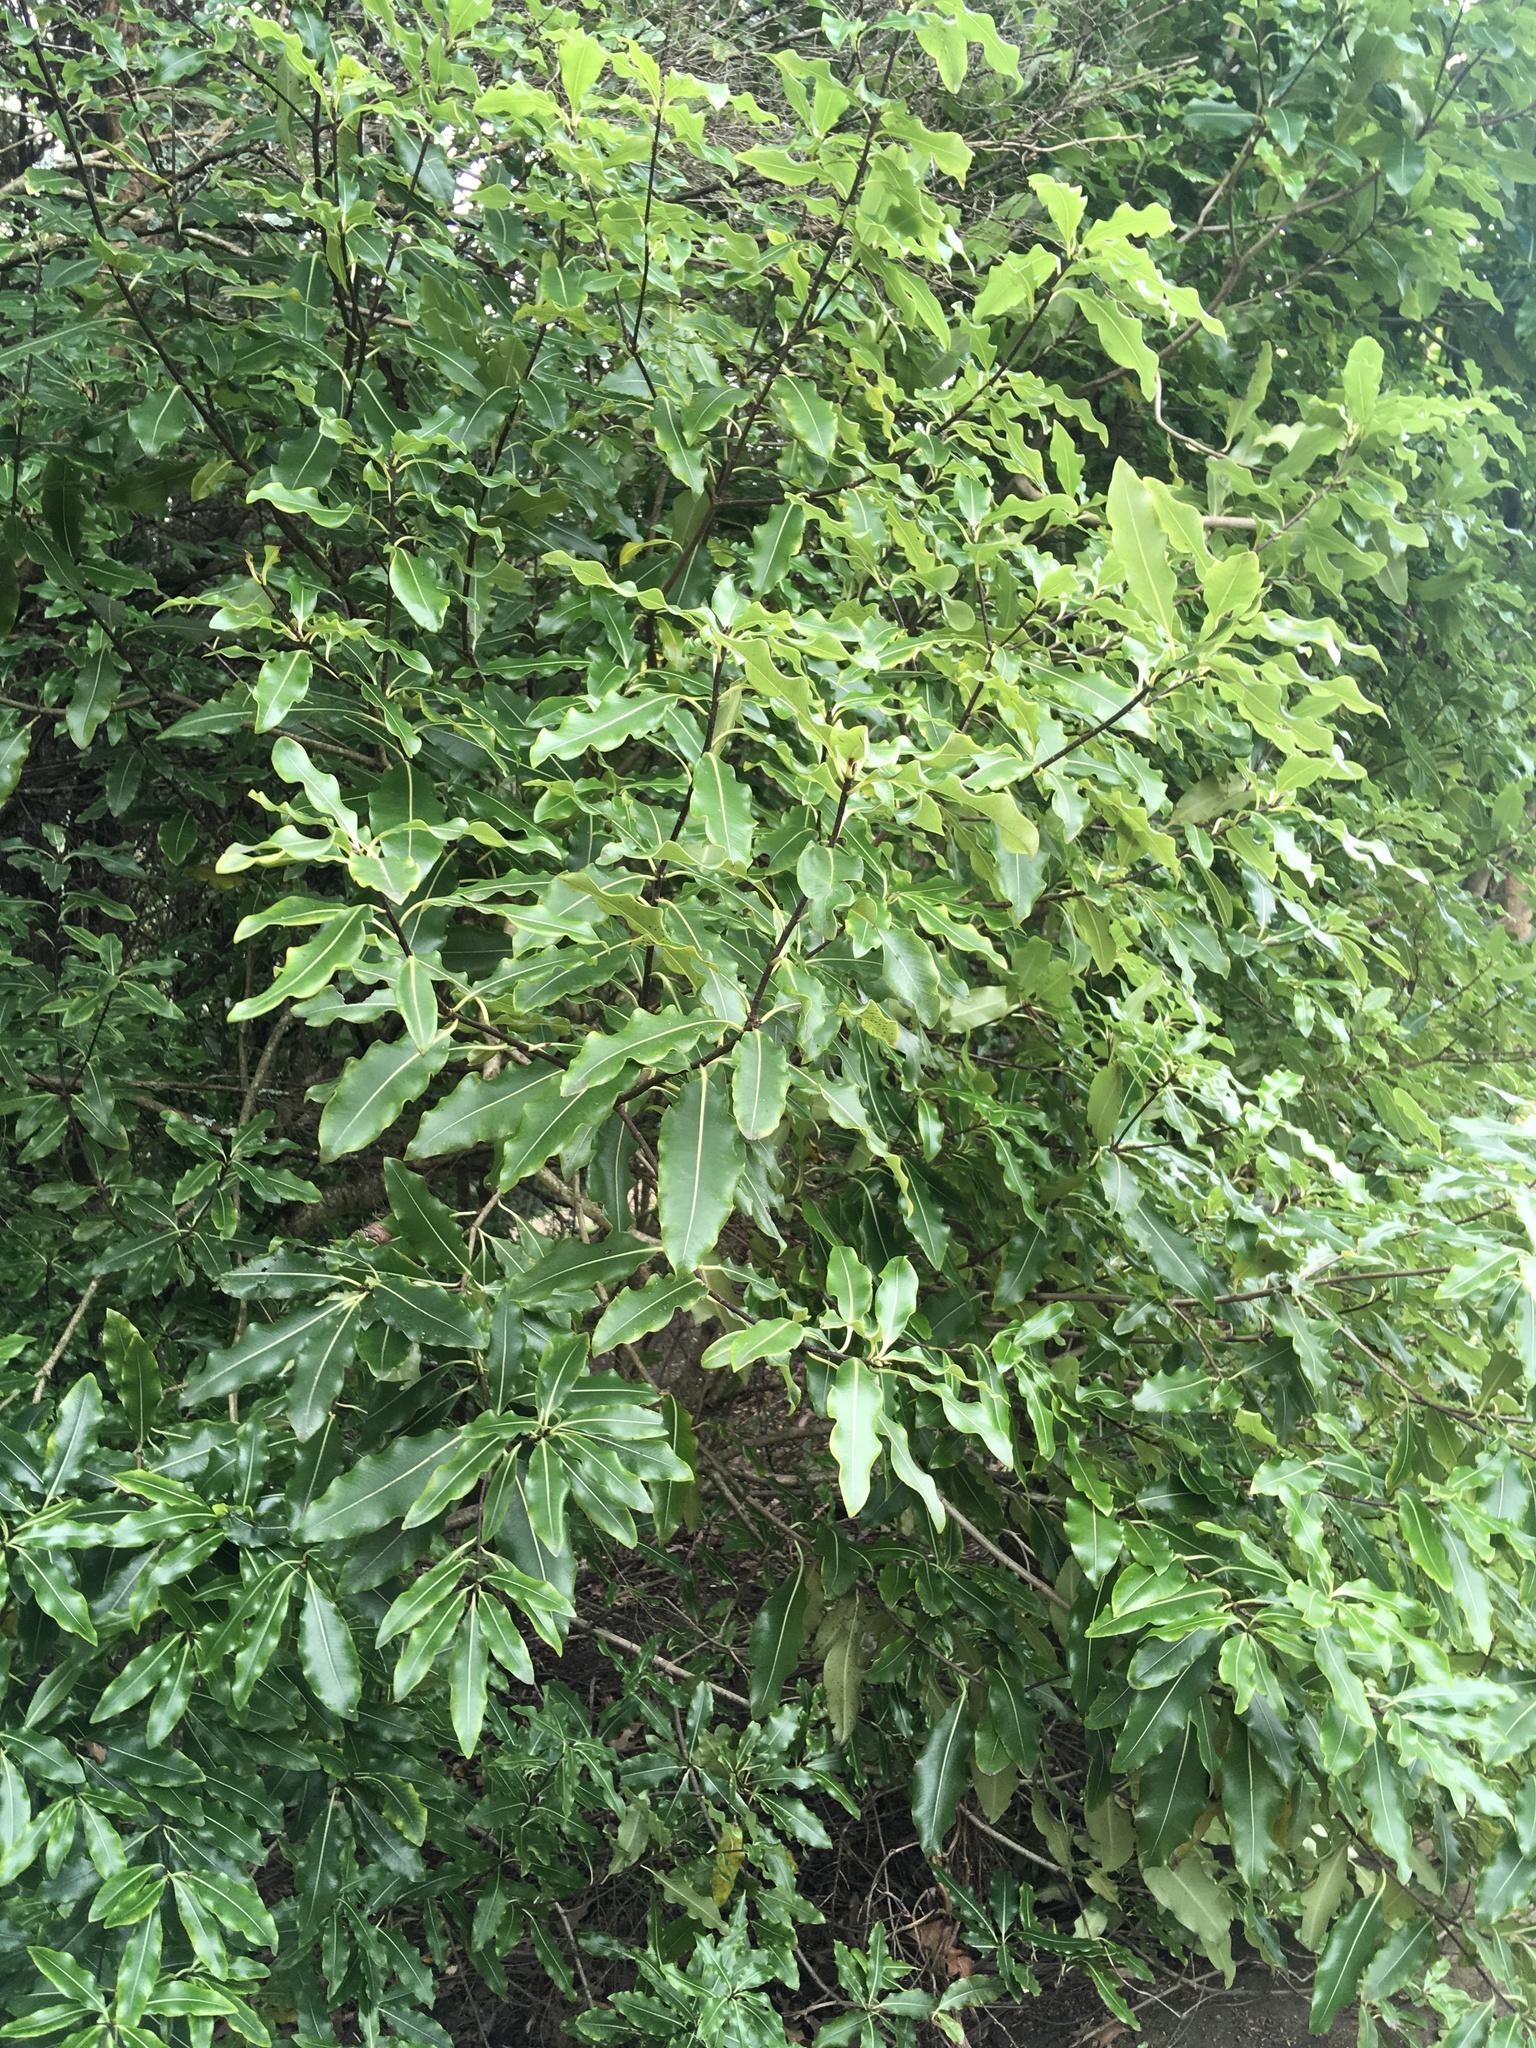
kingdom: Plantae
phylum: Tracheophyta
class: Magnoliopsida
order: Apiales
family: Pittosporaceae
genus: Pittosporum
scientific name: Pittosporum eugenioides
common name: Lemonwood
